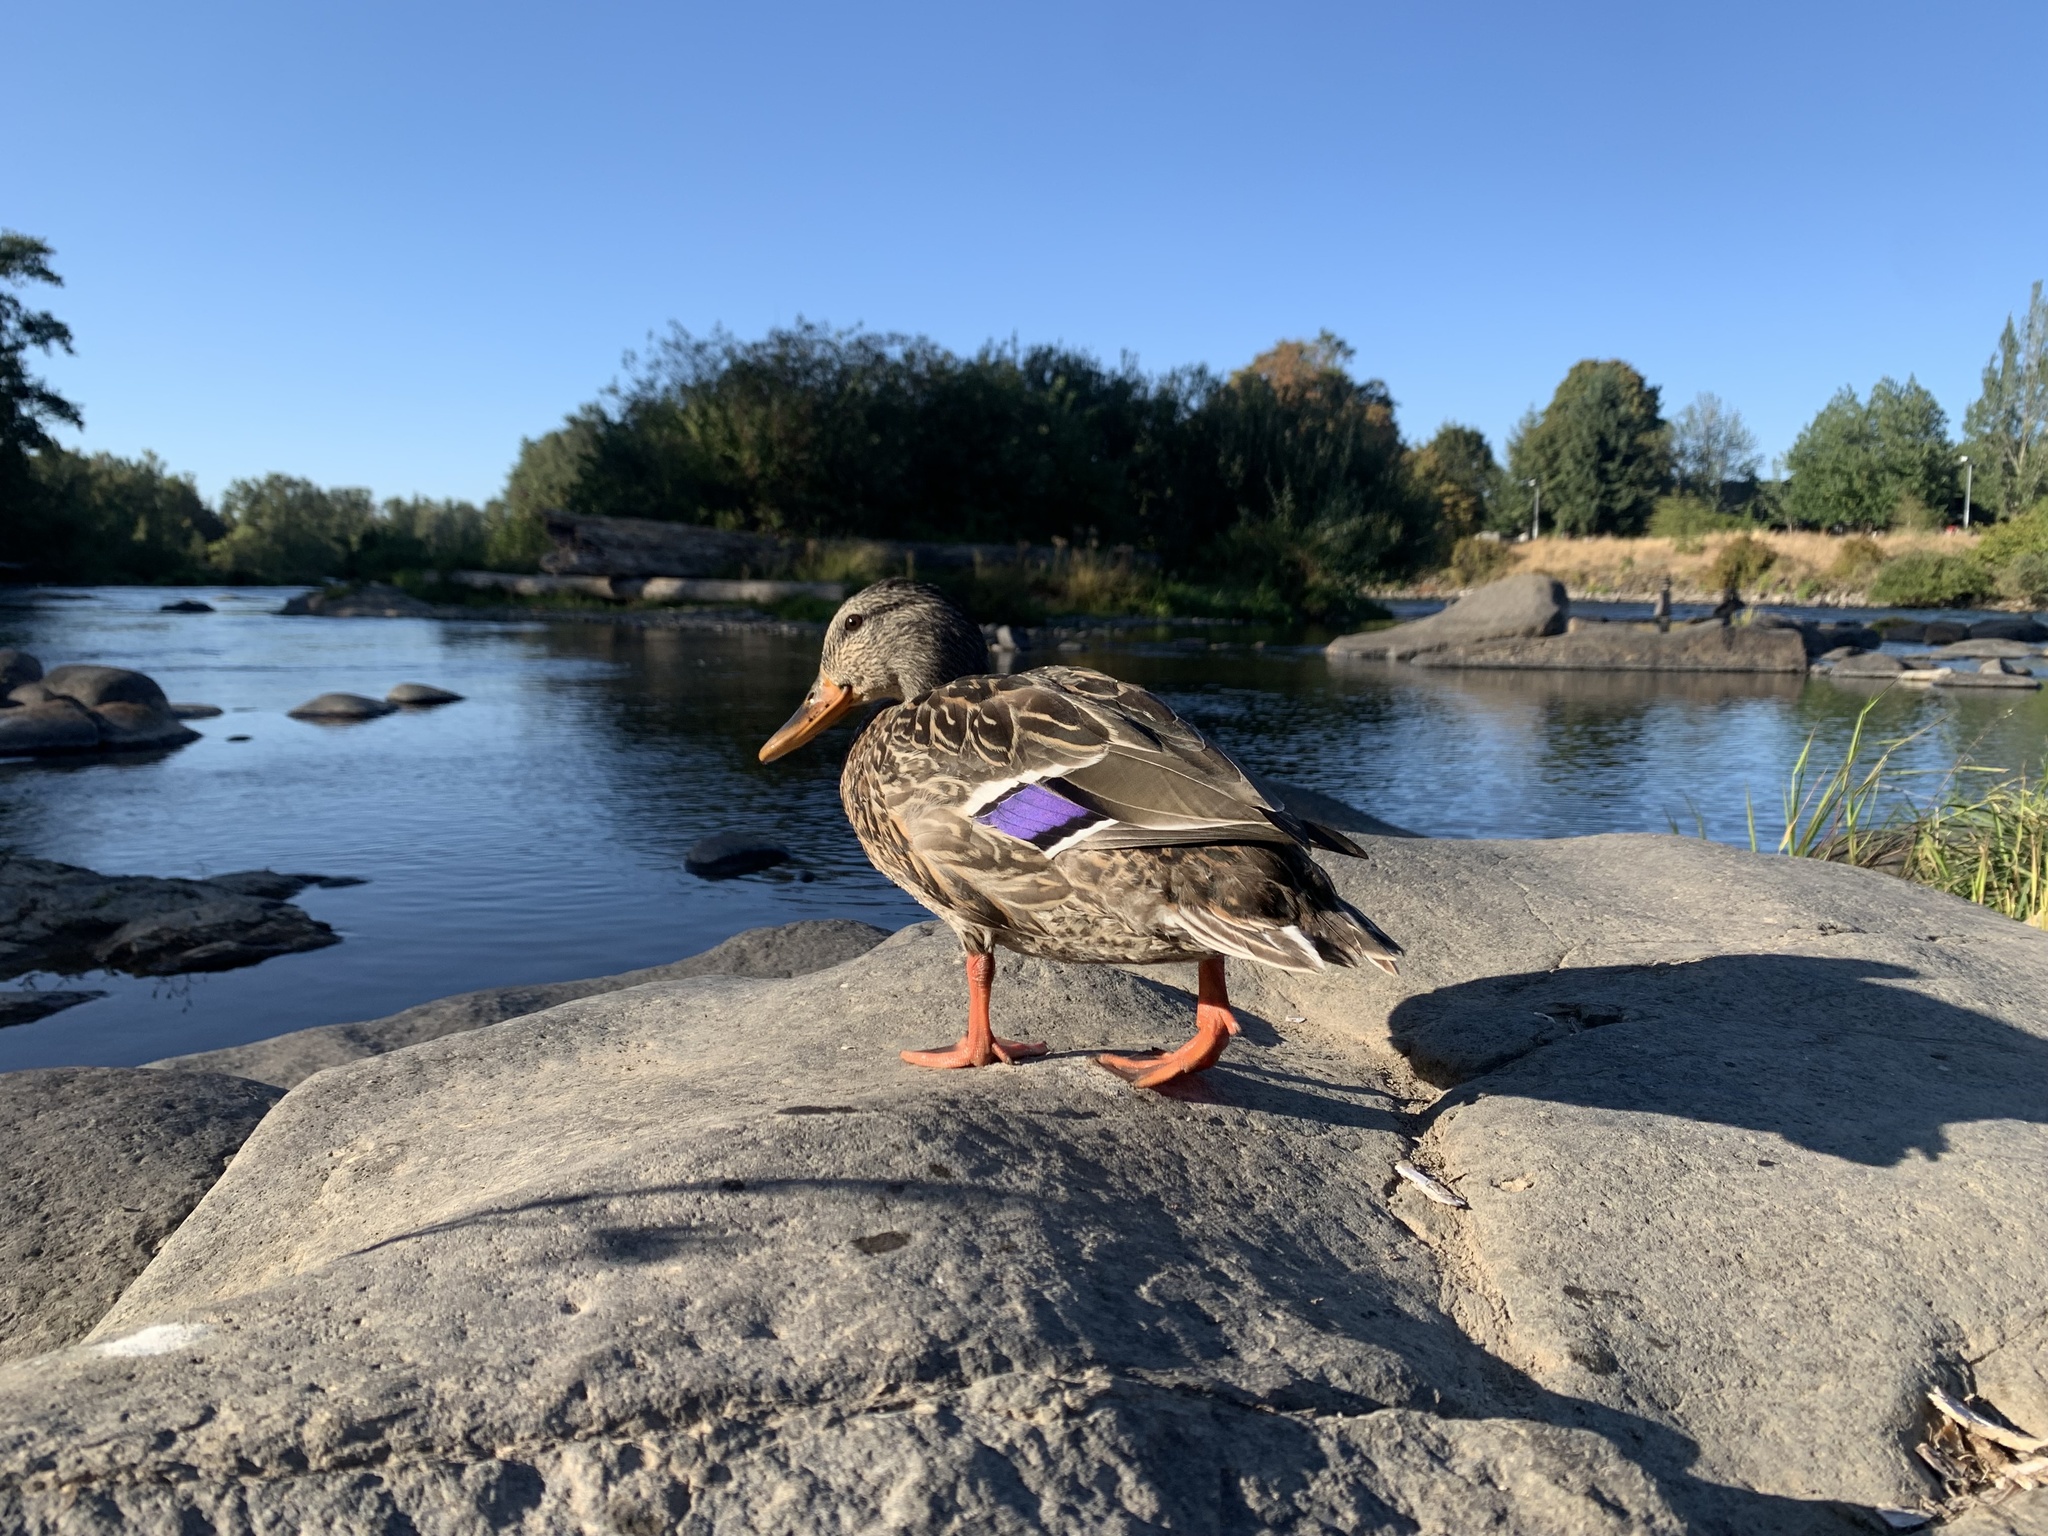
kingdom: Animalia
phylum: Chordata
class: Aves
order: Anseriformes
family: Anatidae
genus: Anas
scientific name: Anas platyrhynchos
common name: Mallard
